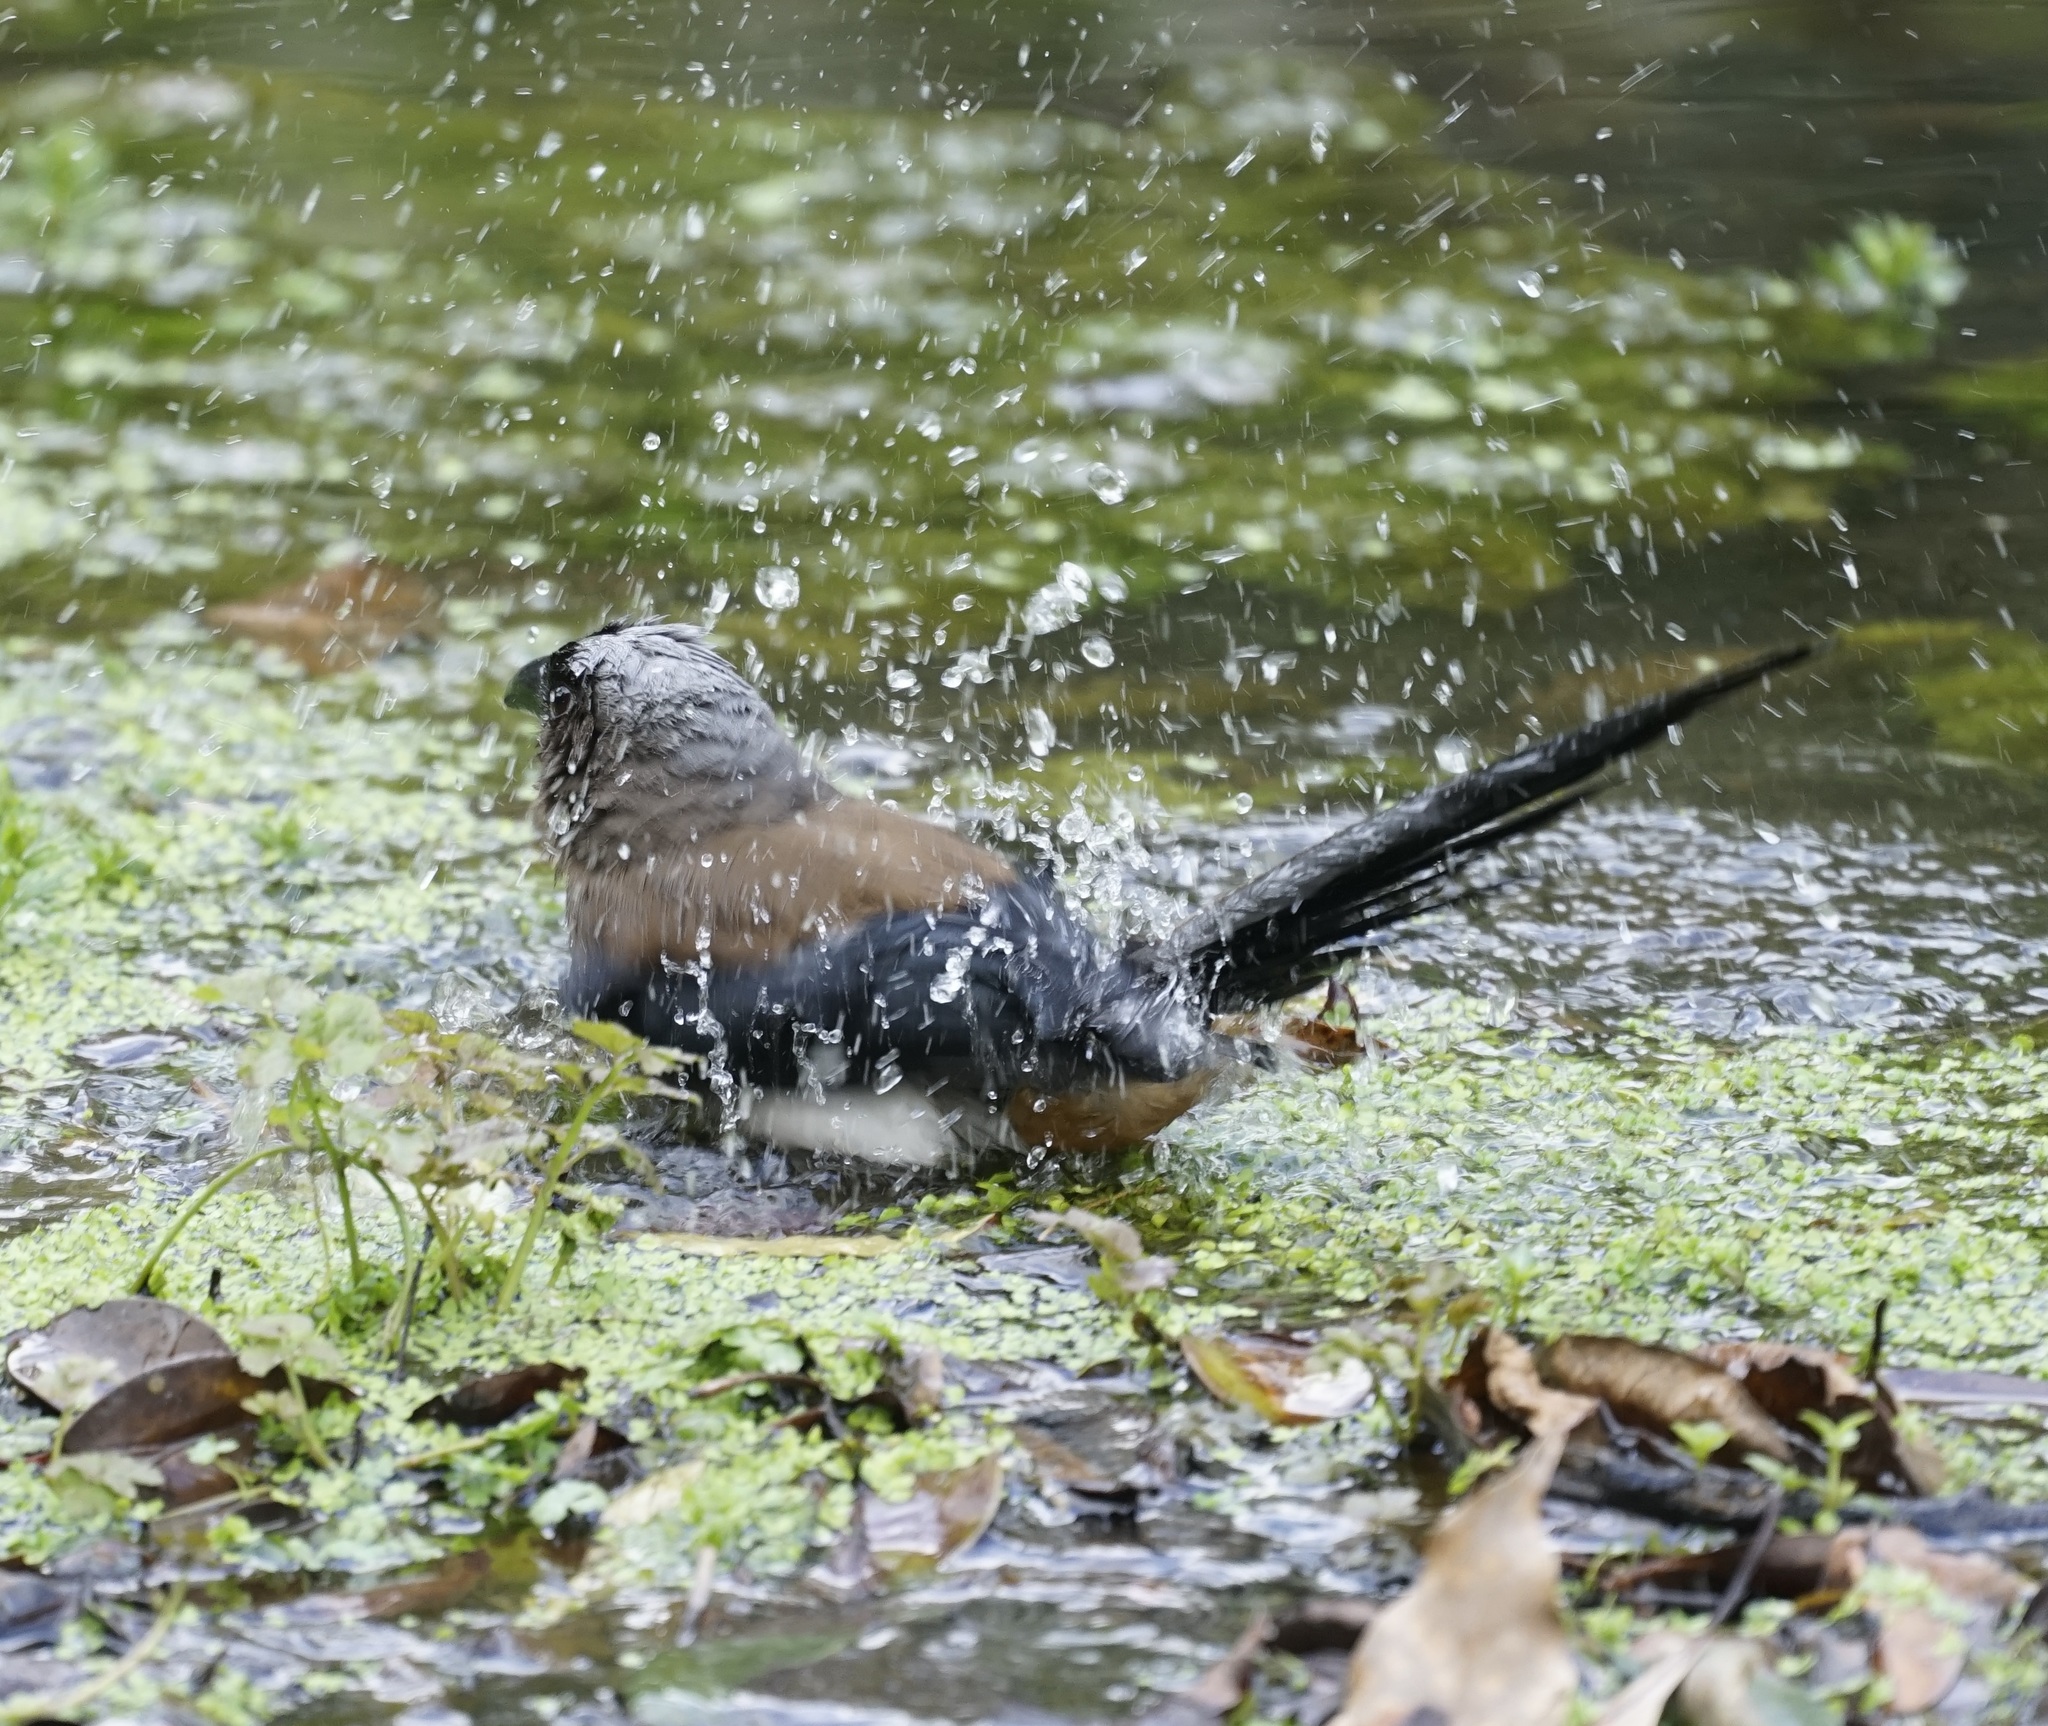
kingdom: Animalia
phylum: Chordata
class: Aves
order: Passeriformes
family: Corvidae
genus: Dendrocitta
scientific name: Dendrocitta formosae
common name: Grey treepie
